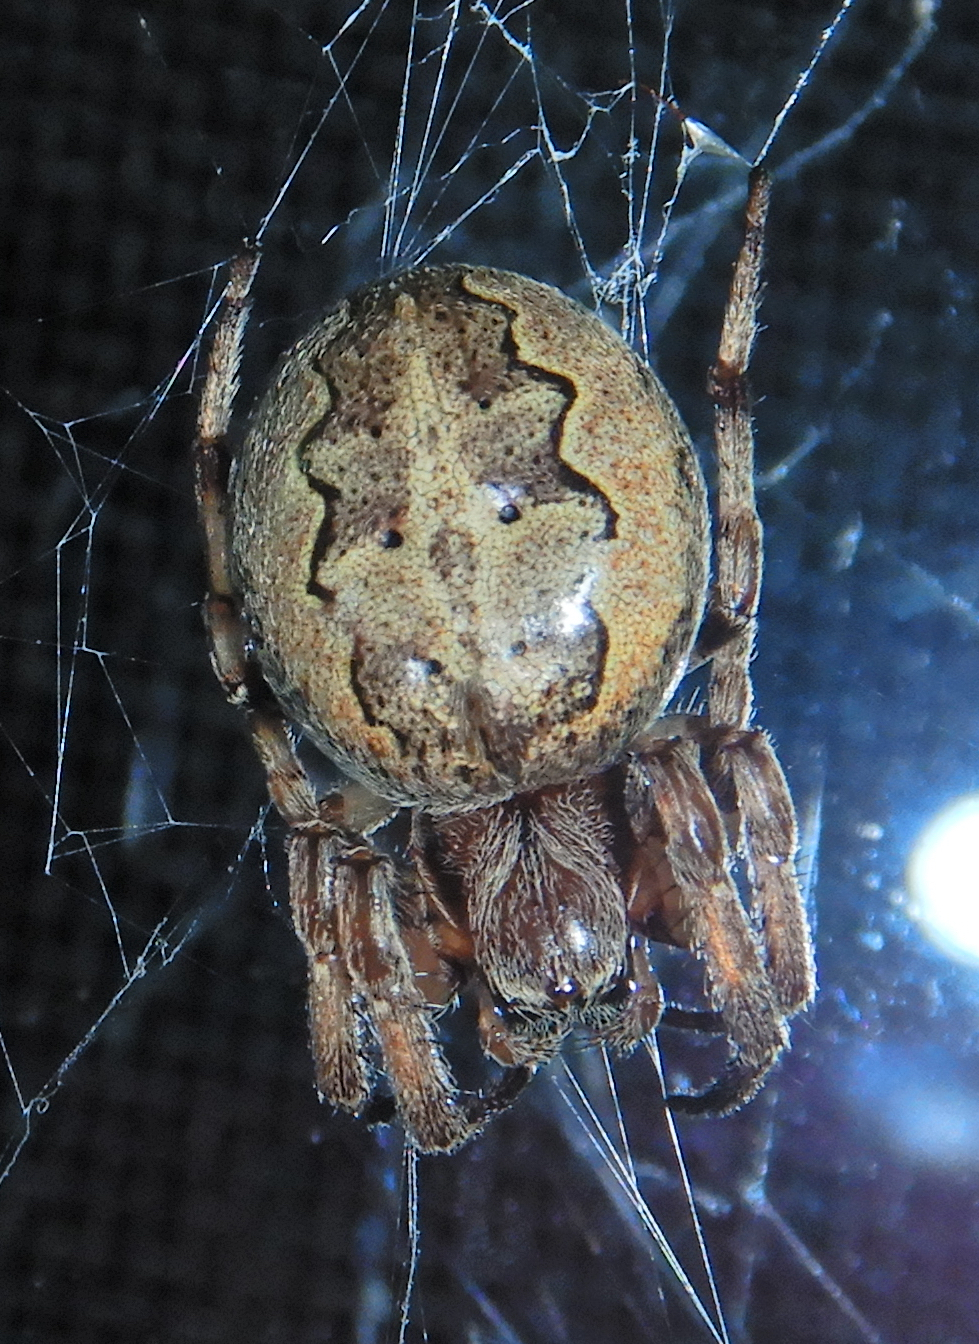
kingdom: Animalia
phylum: Arthropoda
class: Arachnida
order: Araneae
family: Araneidae
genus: Larinioides
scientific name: Larinioides cornutus
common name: Furrow orbweaver
